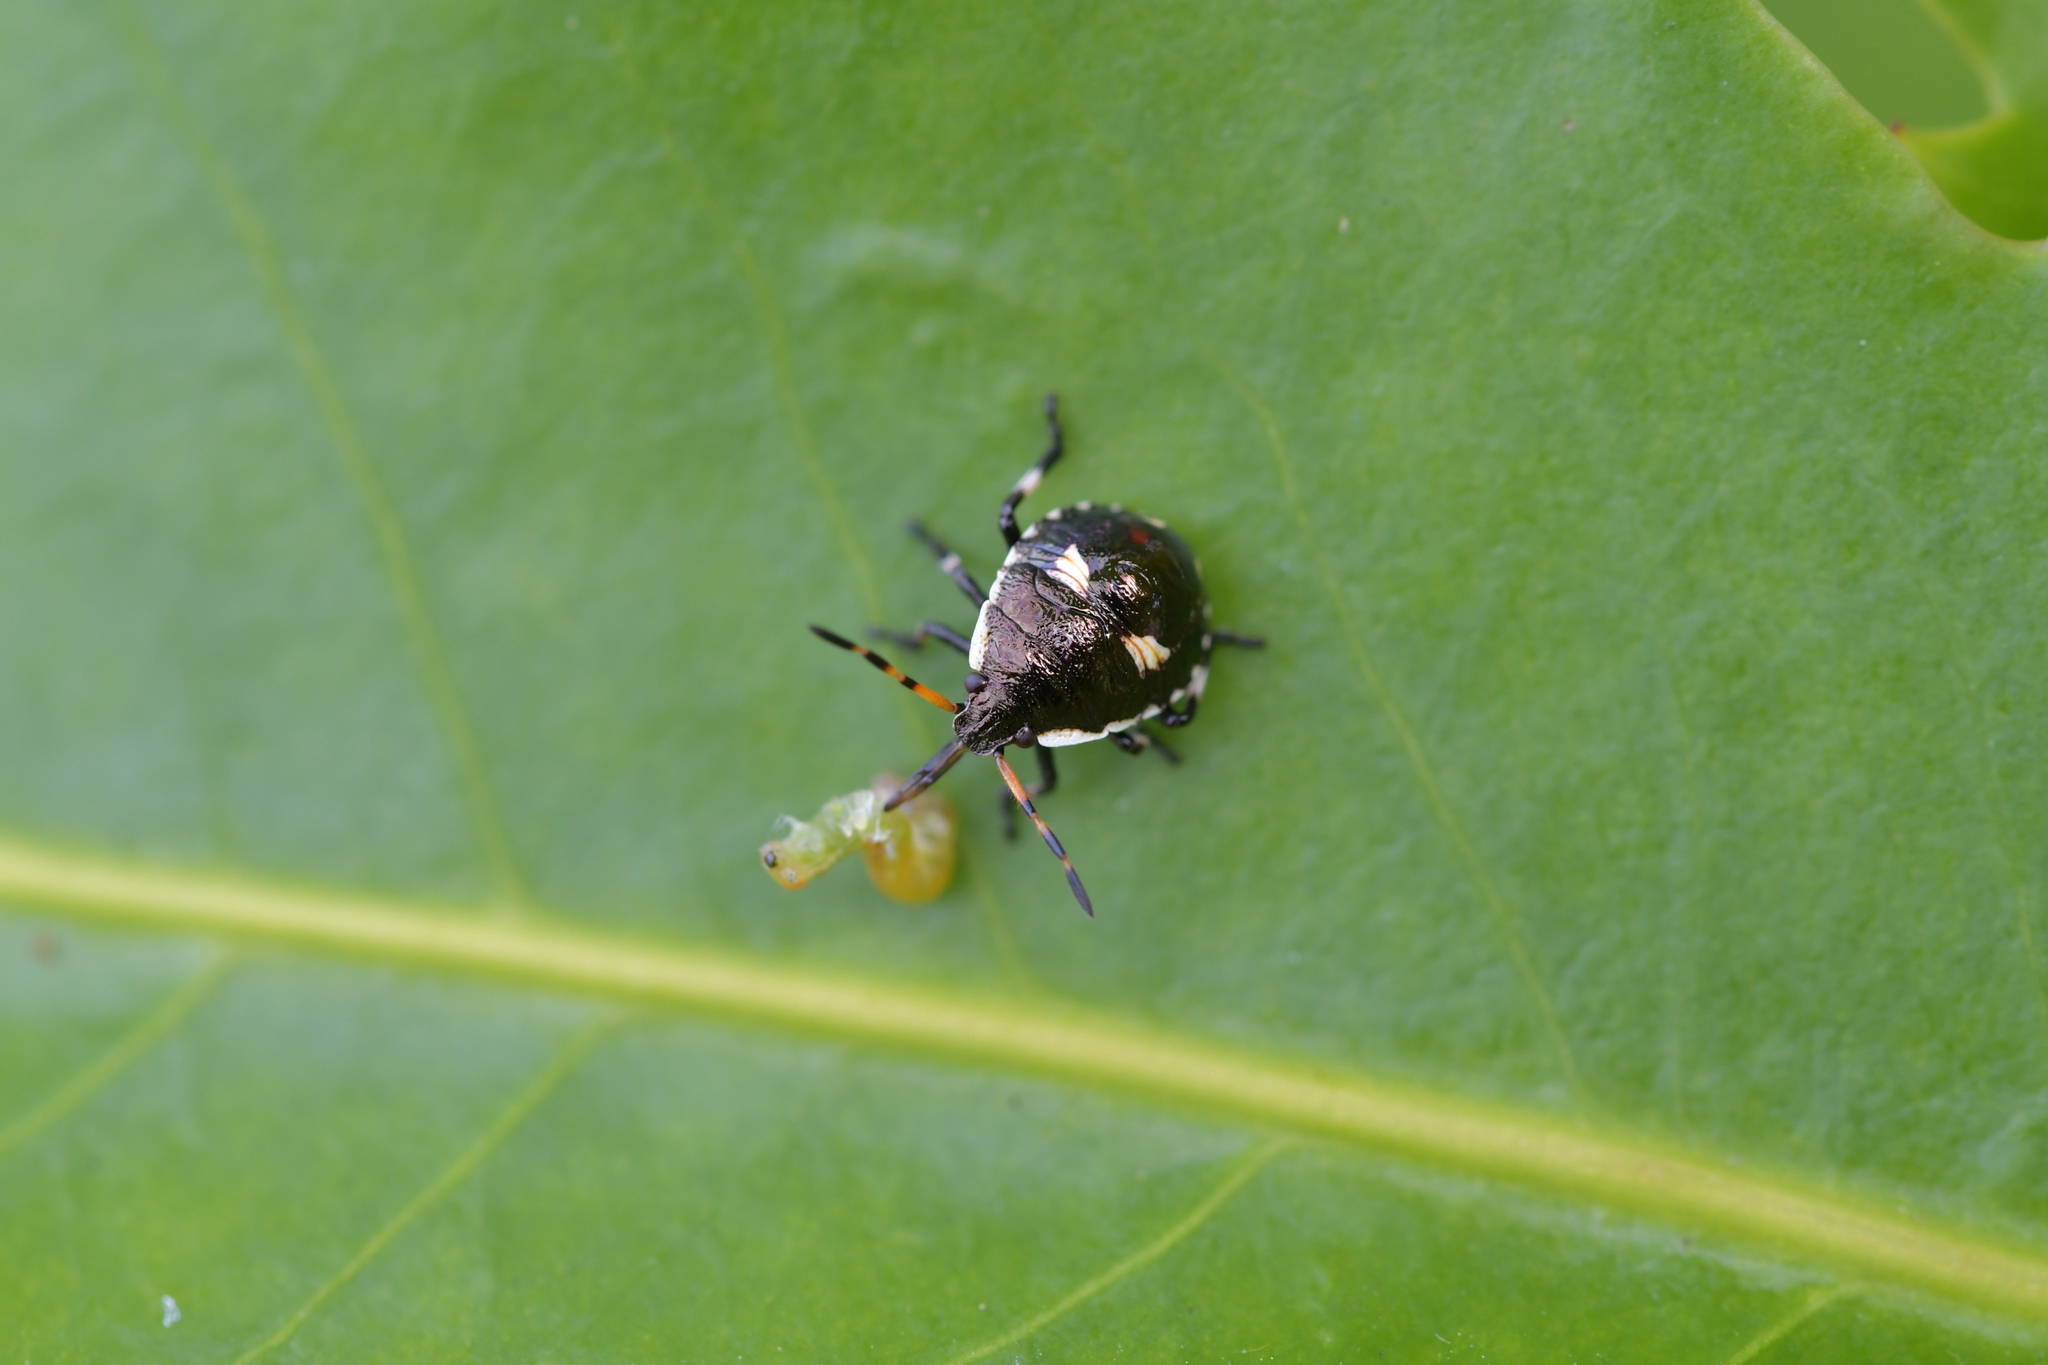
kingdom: Animalia
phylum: Arthropoda
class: Insecta
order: Hemiptera
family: Pentatomidae
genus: Cermatulus
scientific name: Cermatulus nasalis
